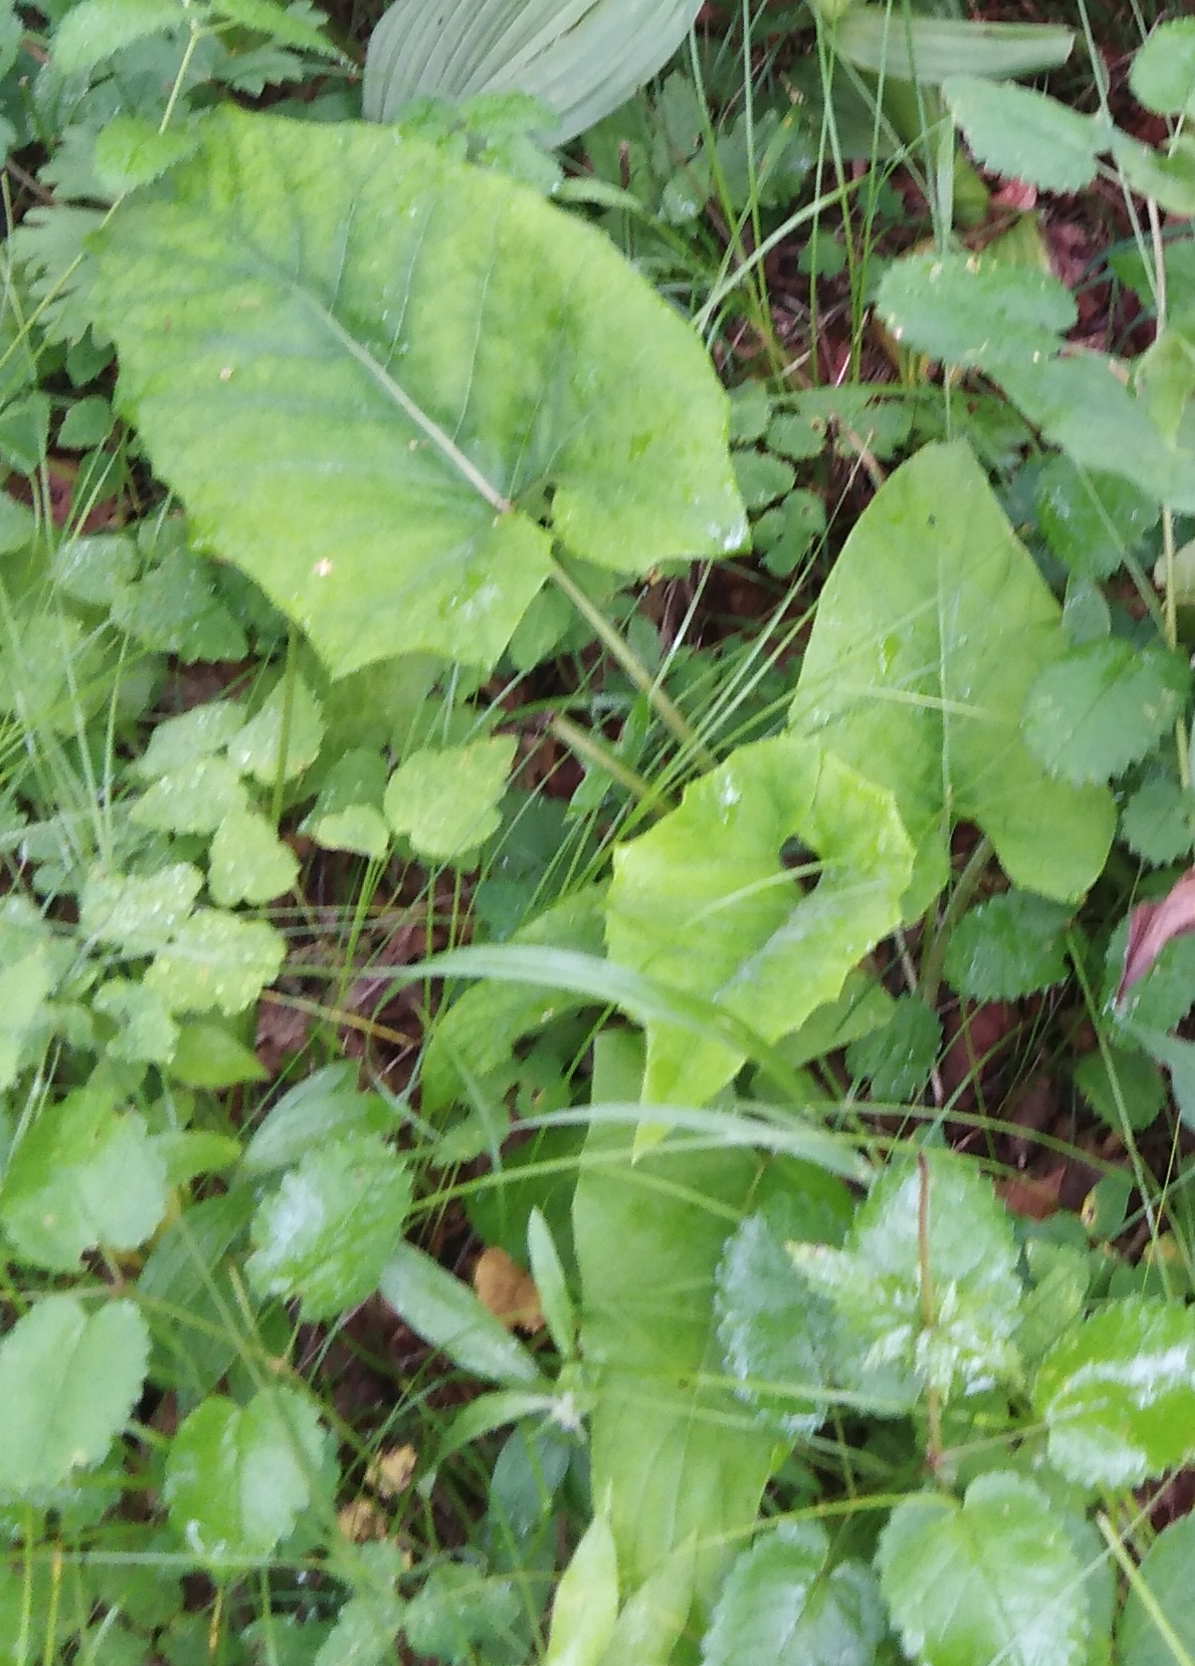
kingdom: Plantae
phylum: Tracheophyta
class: Magnoliopsida
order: Asterales
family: Asteraceae
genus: Synurus
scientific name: Synurus deltoides
